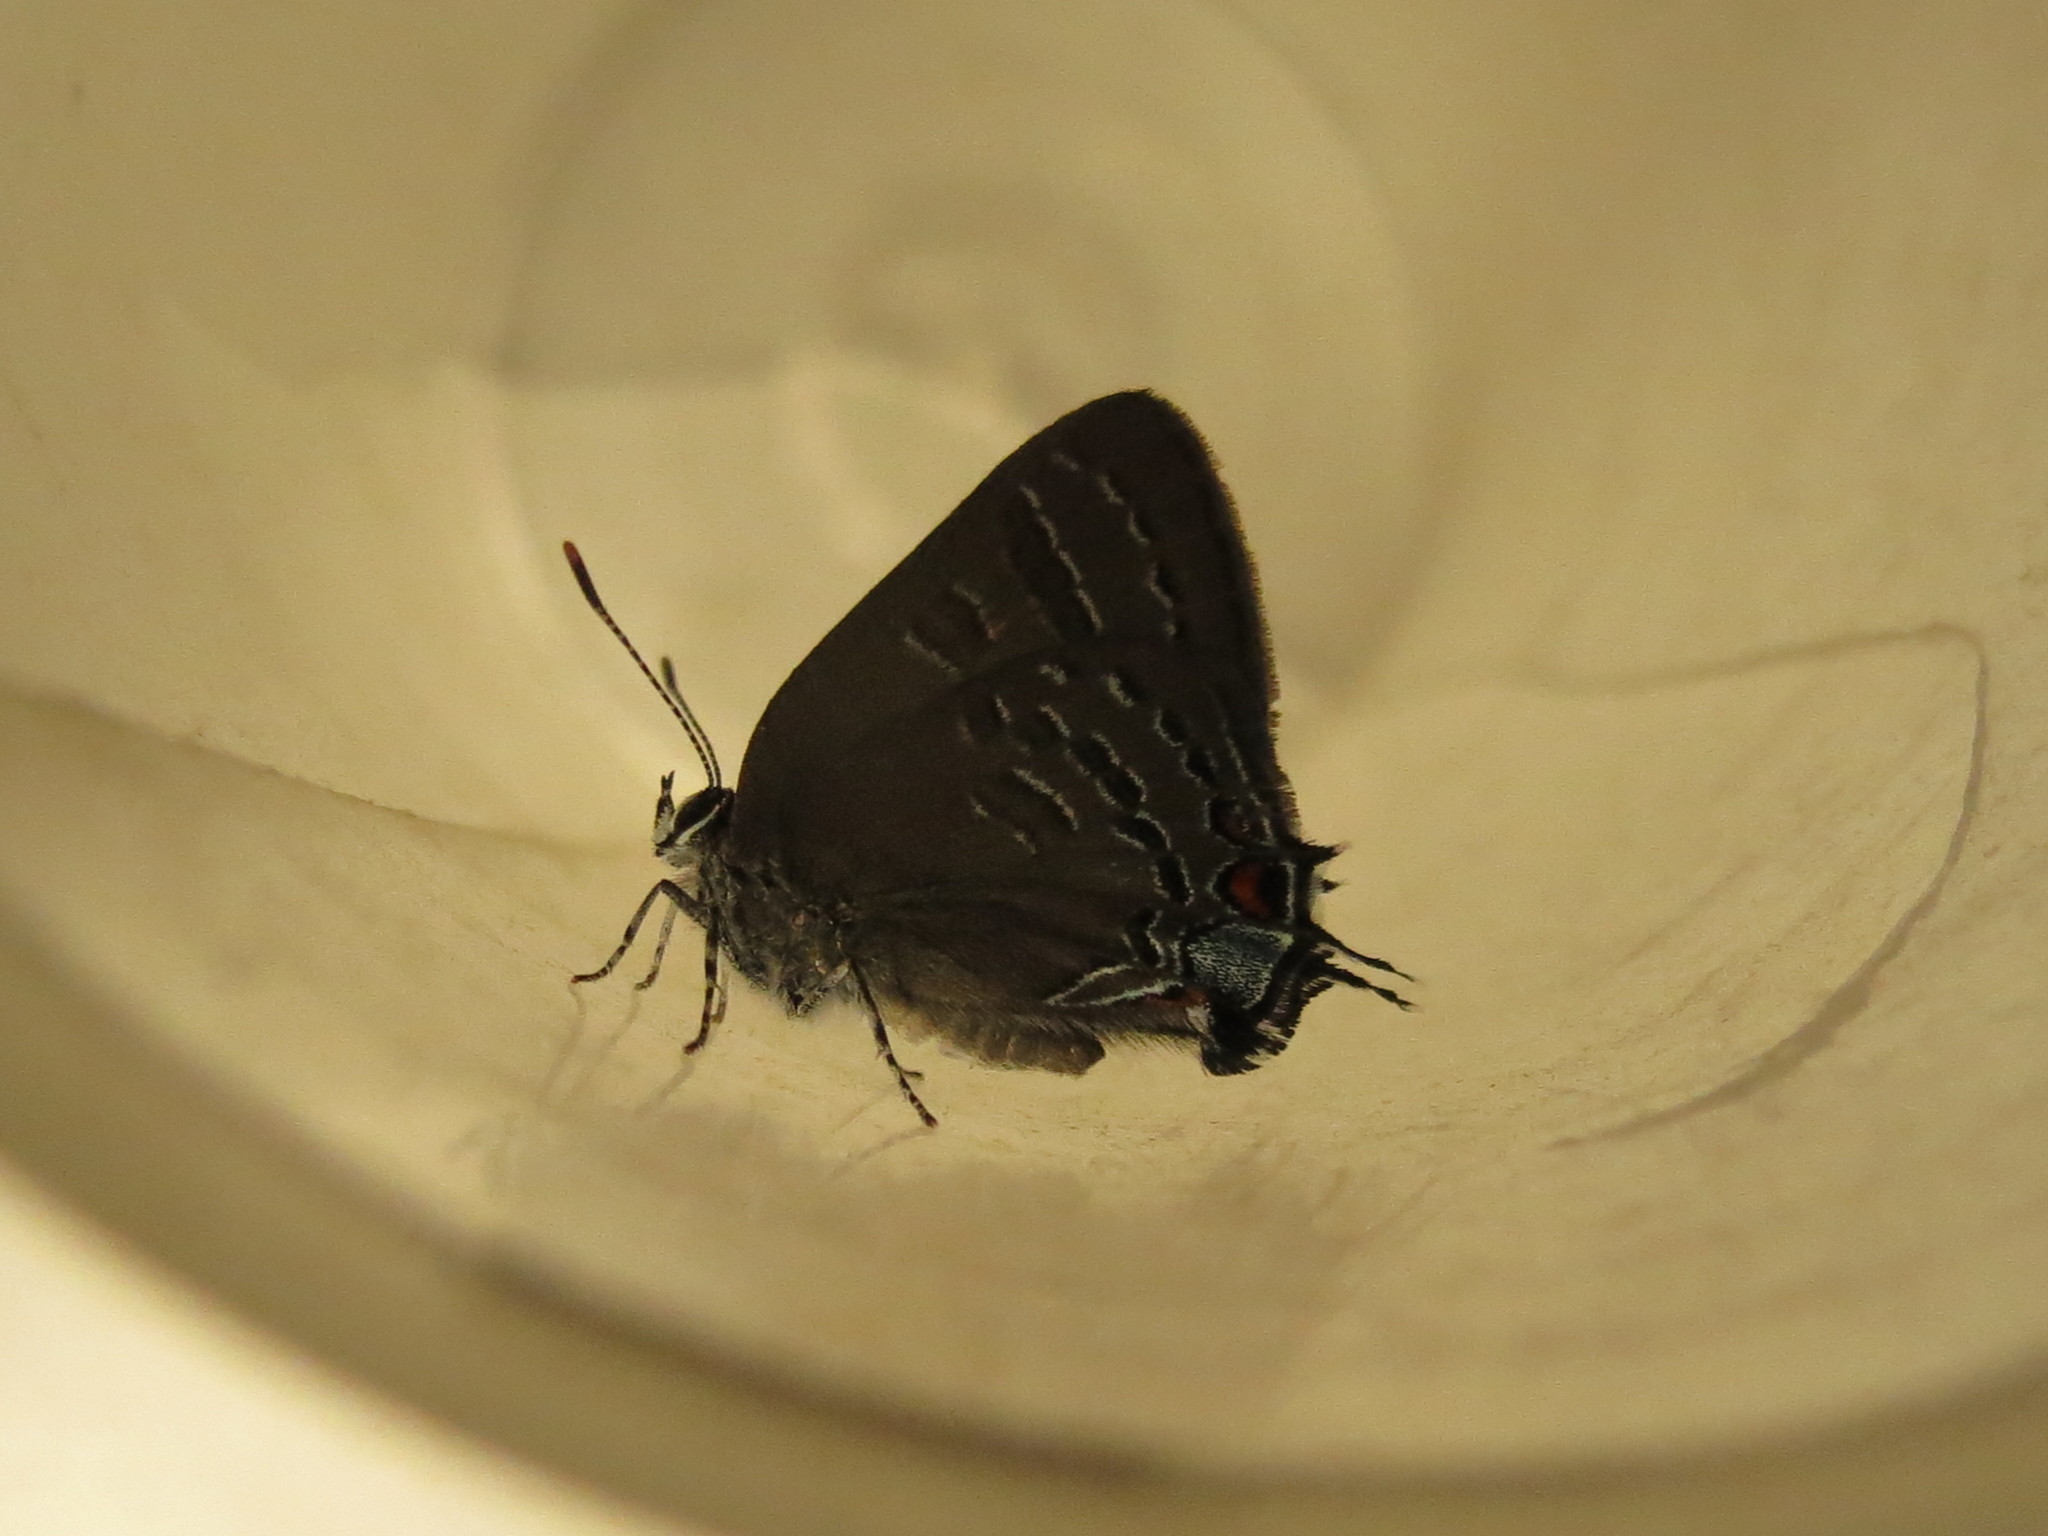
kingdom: Animalia
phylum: Arthropoda
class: Insecta
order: Lepidoptera
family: Lycaenidae
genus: Satyrium
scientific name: Satyrium calanus
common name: Banded hairstreak
